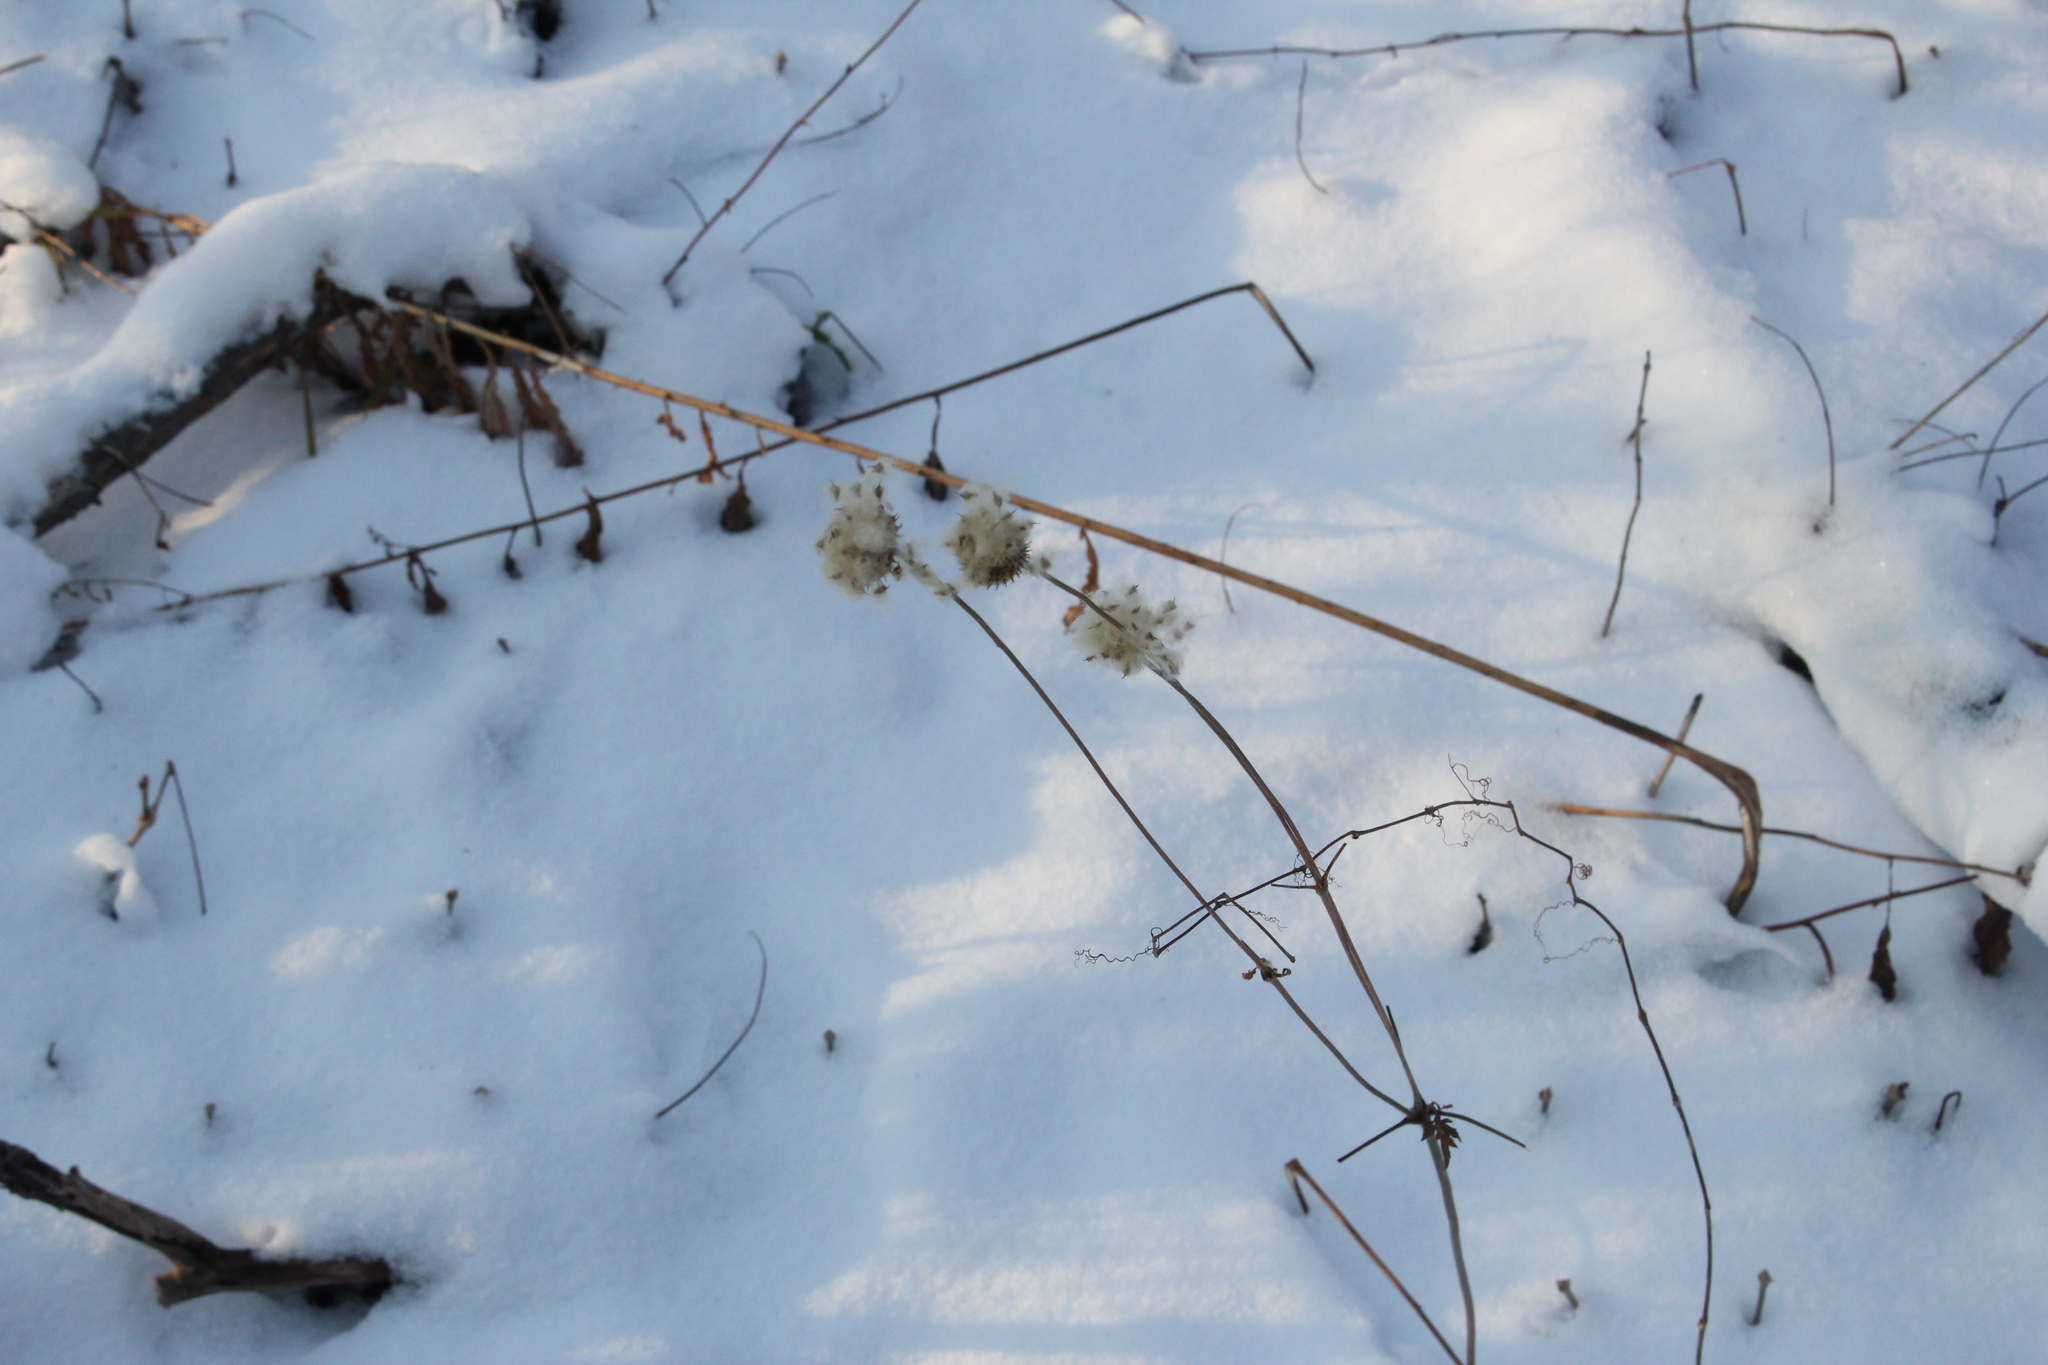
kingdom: Plantae
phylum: Tracheophyta
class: Magnoliopsida
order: Ranunculales
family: Ranunculaceae
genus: Anemone
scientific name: Anemone virginiana
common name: Tall anemone
